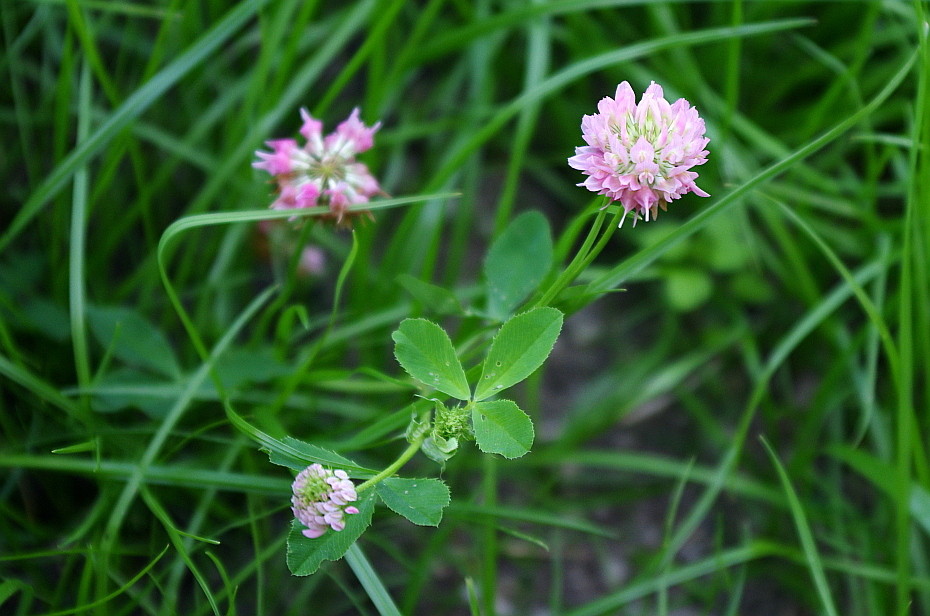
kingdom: Plantae
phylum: Tracheophyta
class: Magnoliopsida
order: Fabales
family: Fabaceae
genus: Trifolium
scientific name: Trifolium hybridum
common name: Alsike clover
